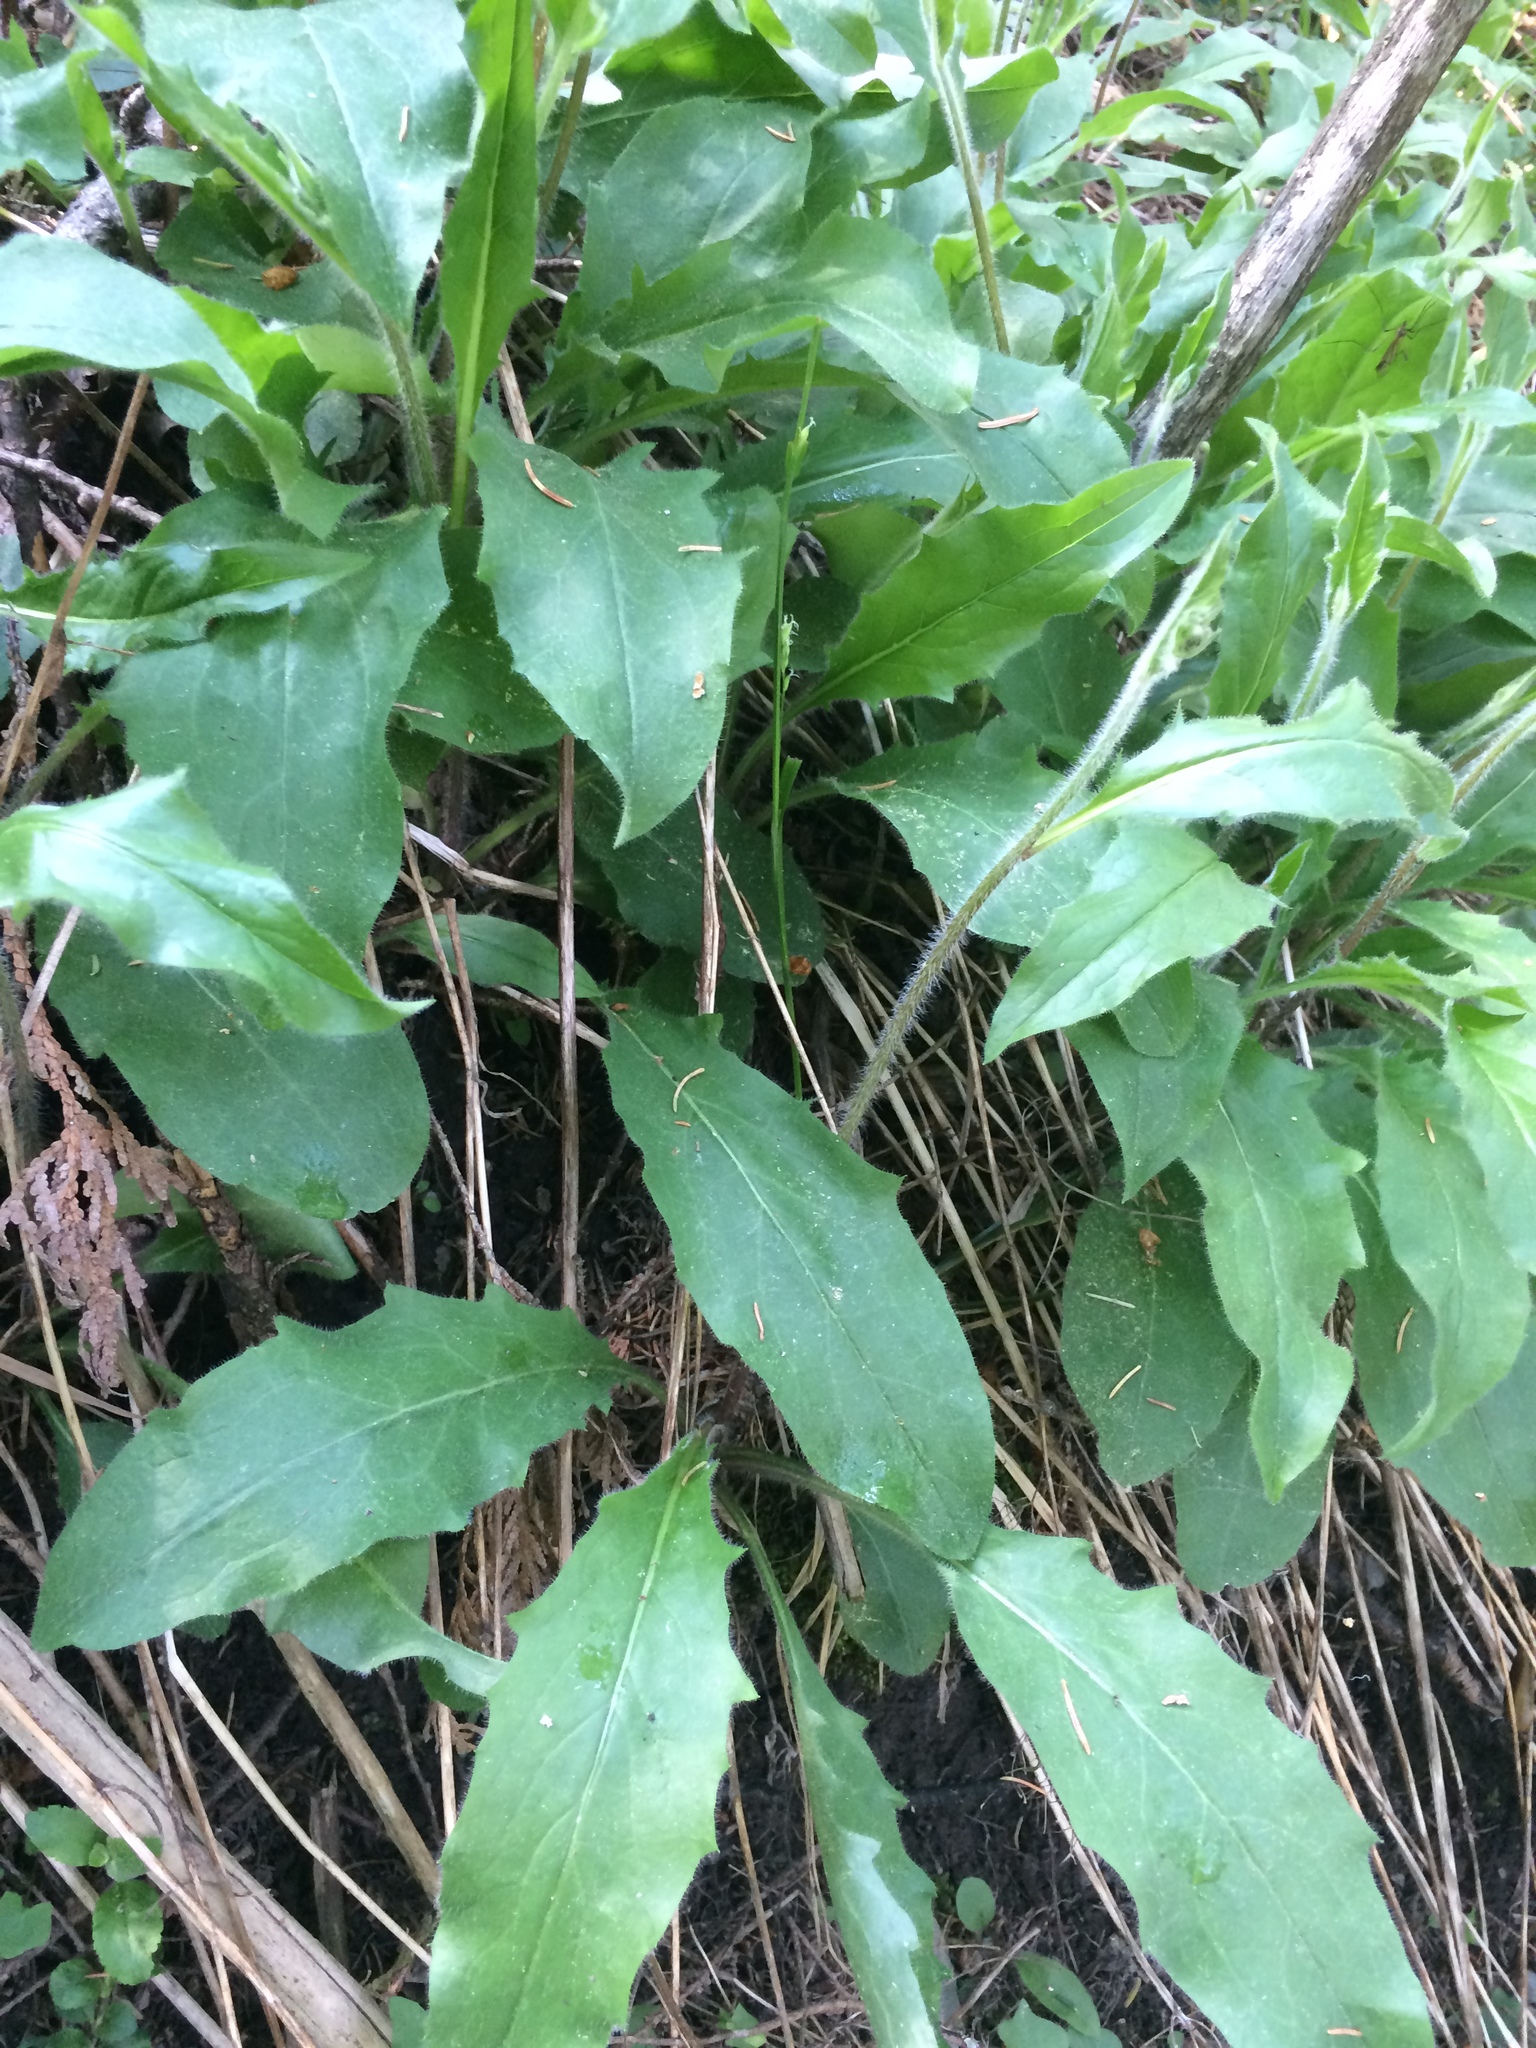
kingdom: Plantae
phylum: Tracheophyta
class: Magnoliopsida
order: Asterales
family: Asteraceae
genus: Hieracium
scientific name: Hieracium lachenalii
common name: Common hawkweed
